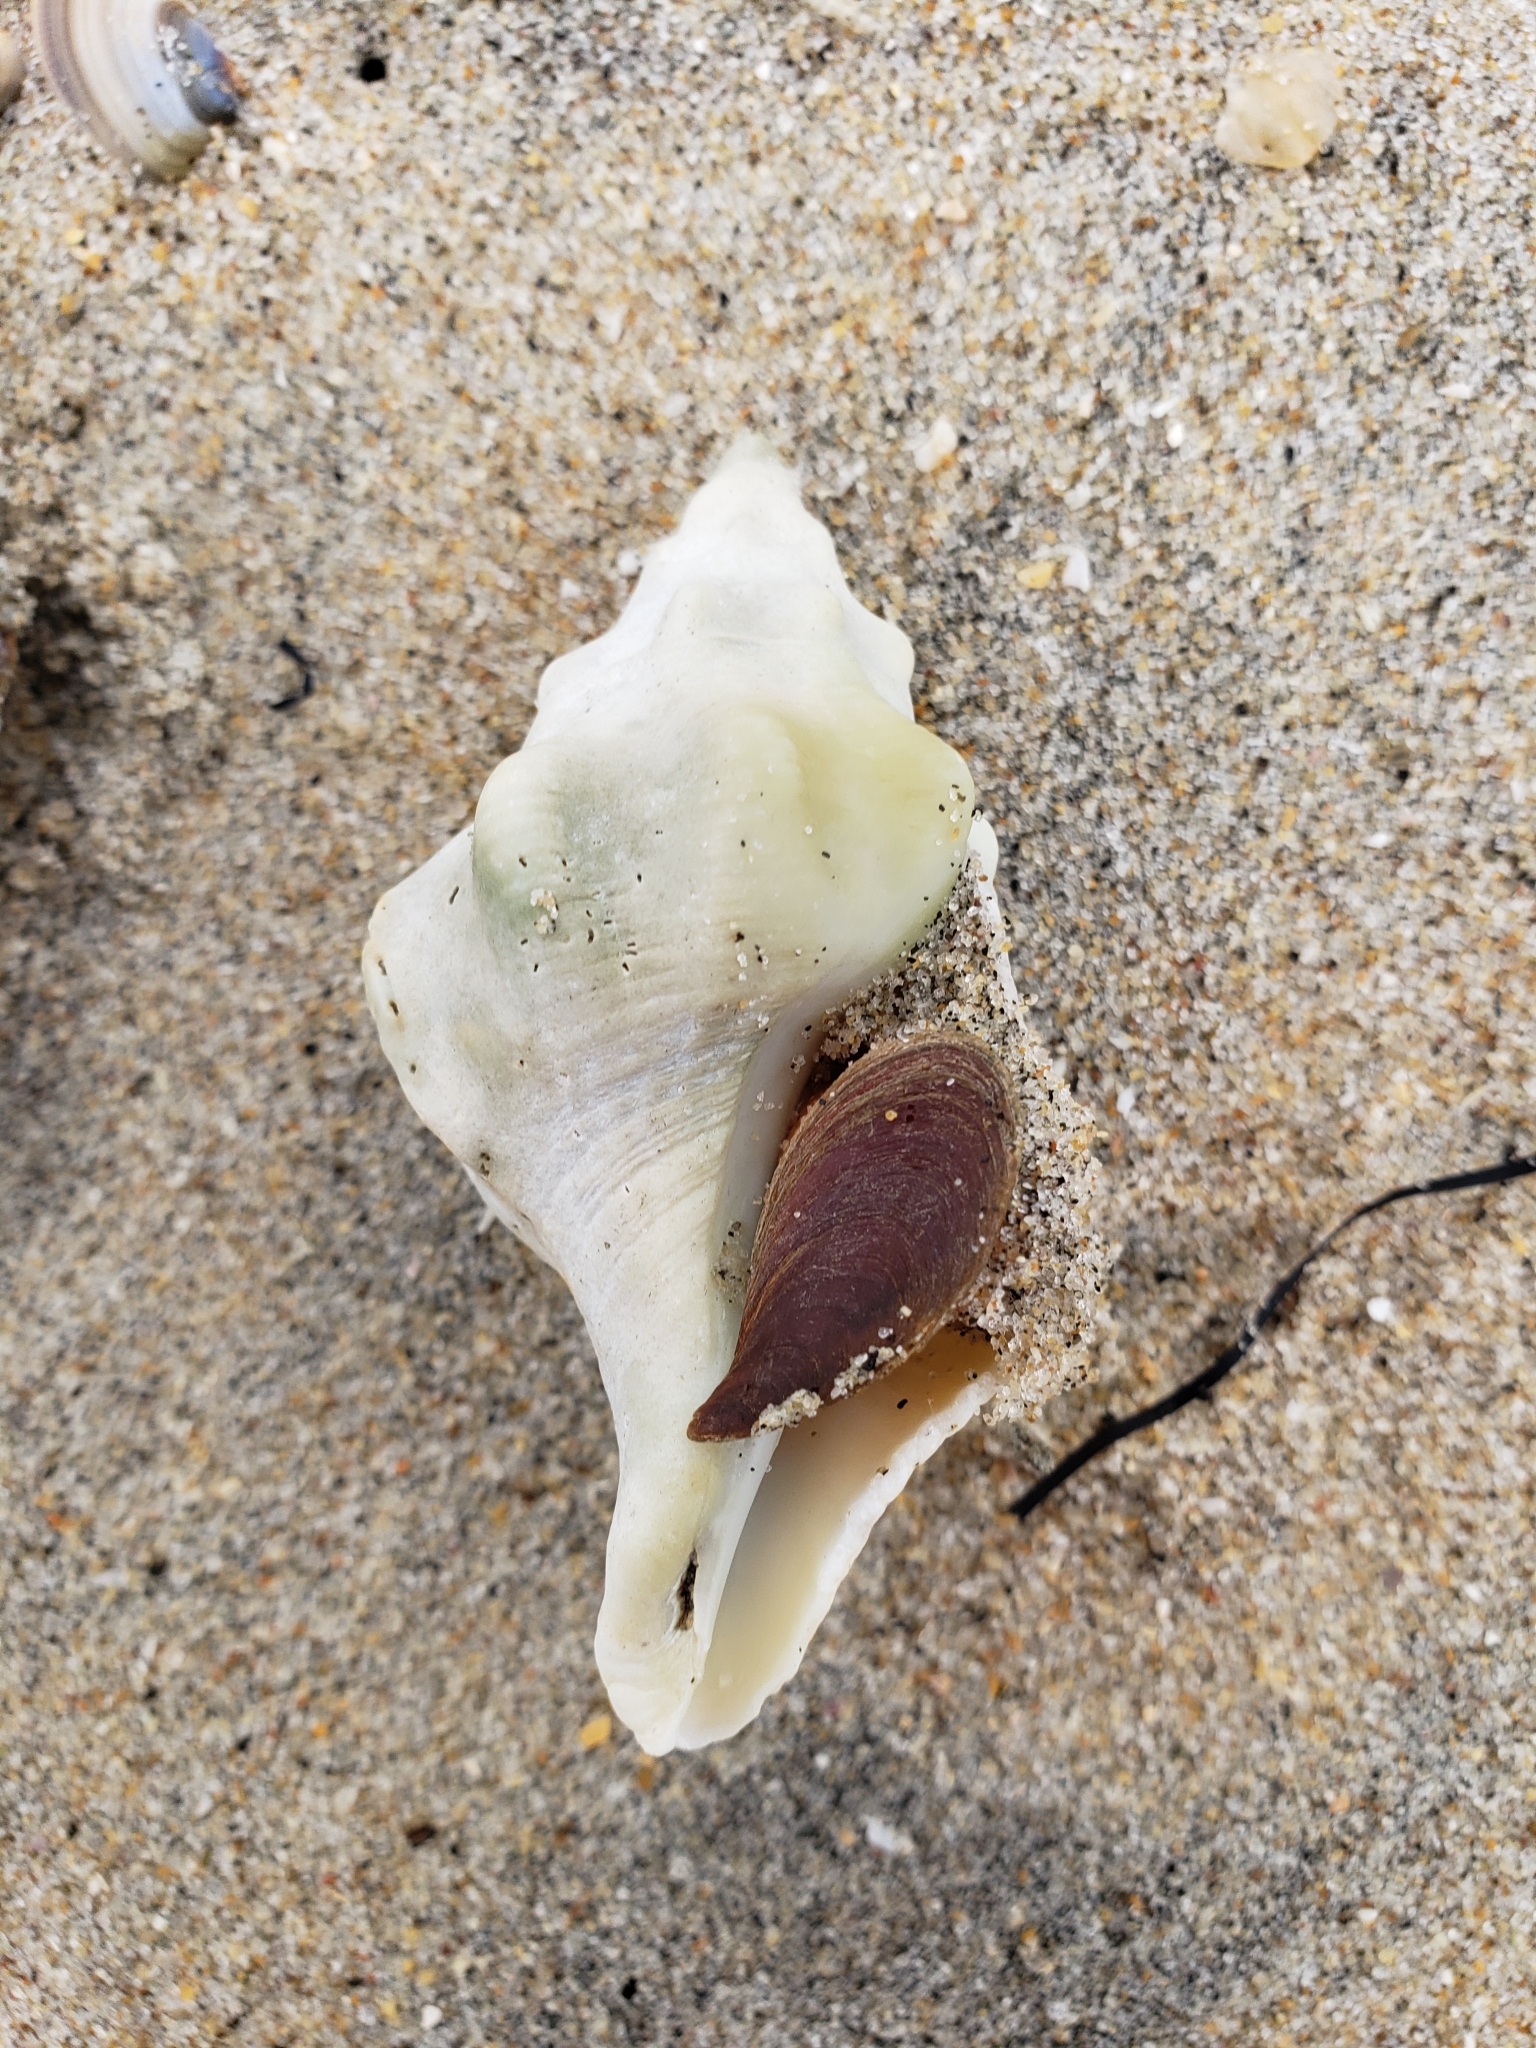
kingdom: Animalia
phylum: Mollusca
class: Gastropoda
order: Neogastropoda
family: Austrosiphonidae
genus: Kelletia
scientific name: Kelletia kelletii
